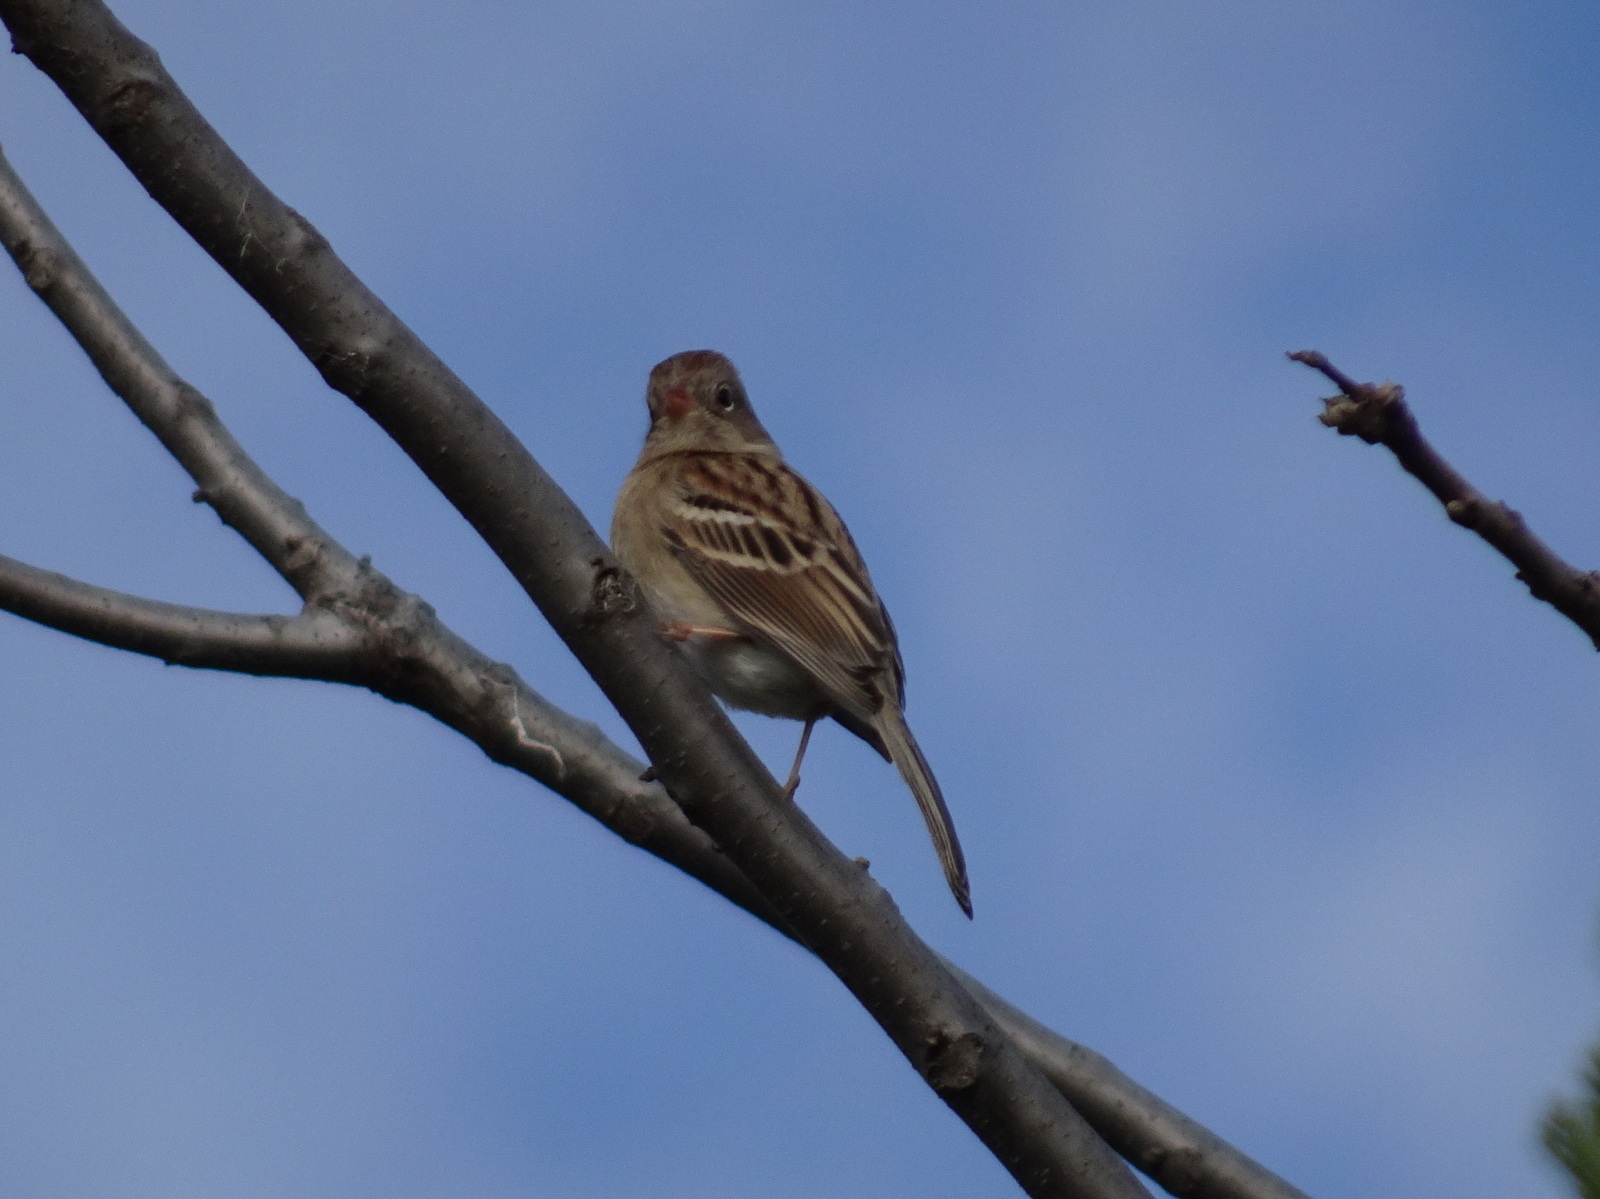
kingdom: Animalia
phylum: Chordata
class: Aves
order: Passeriformes
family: Passerellidae
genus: Spizella
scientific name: Spizella pusilla
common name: Field sparrow
